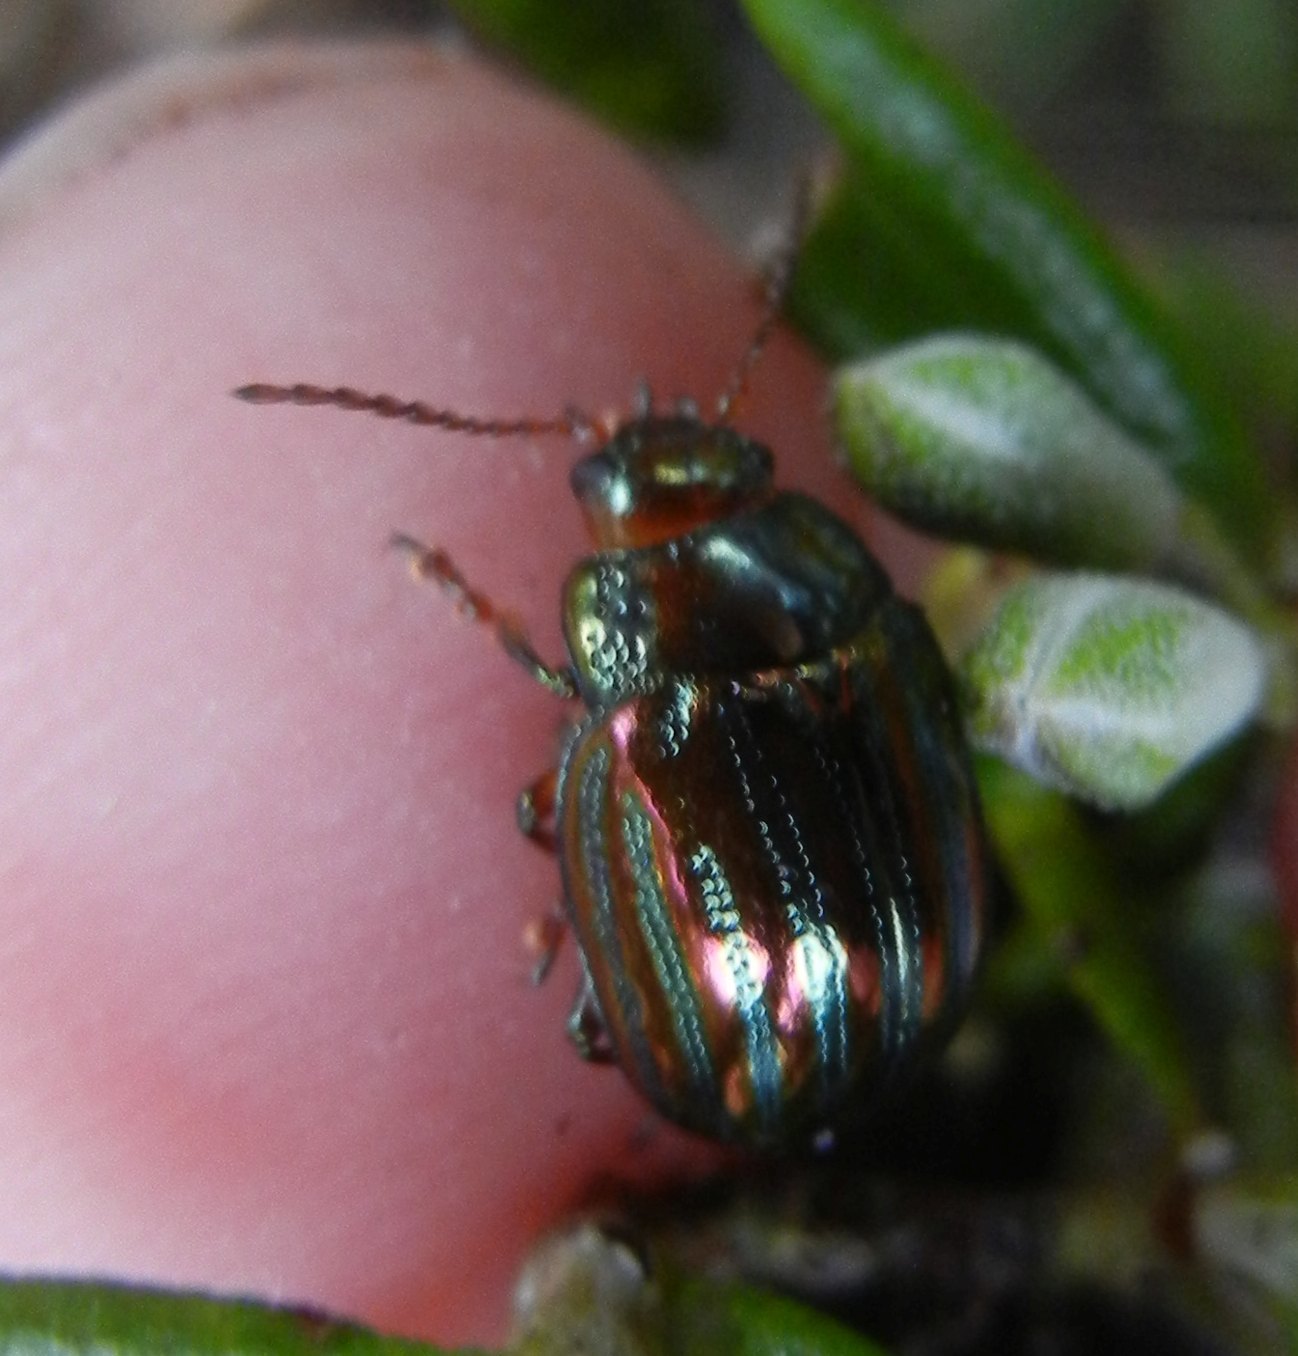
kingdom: Animalia
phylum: Arthropoda
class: Insecta
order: Coleoptera
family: Chrysomelidae
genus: Chrysolina
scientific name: Chrysolina americana
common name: Rosemary beetle
